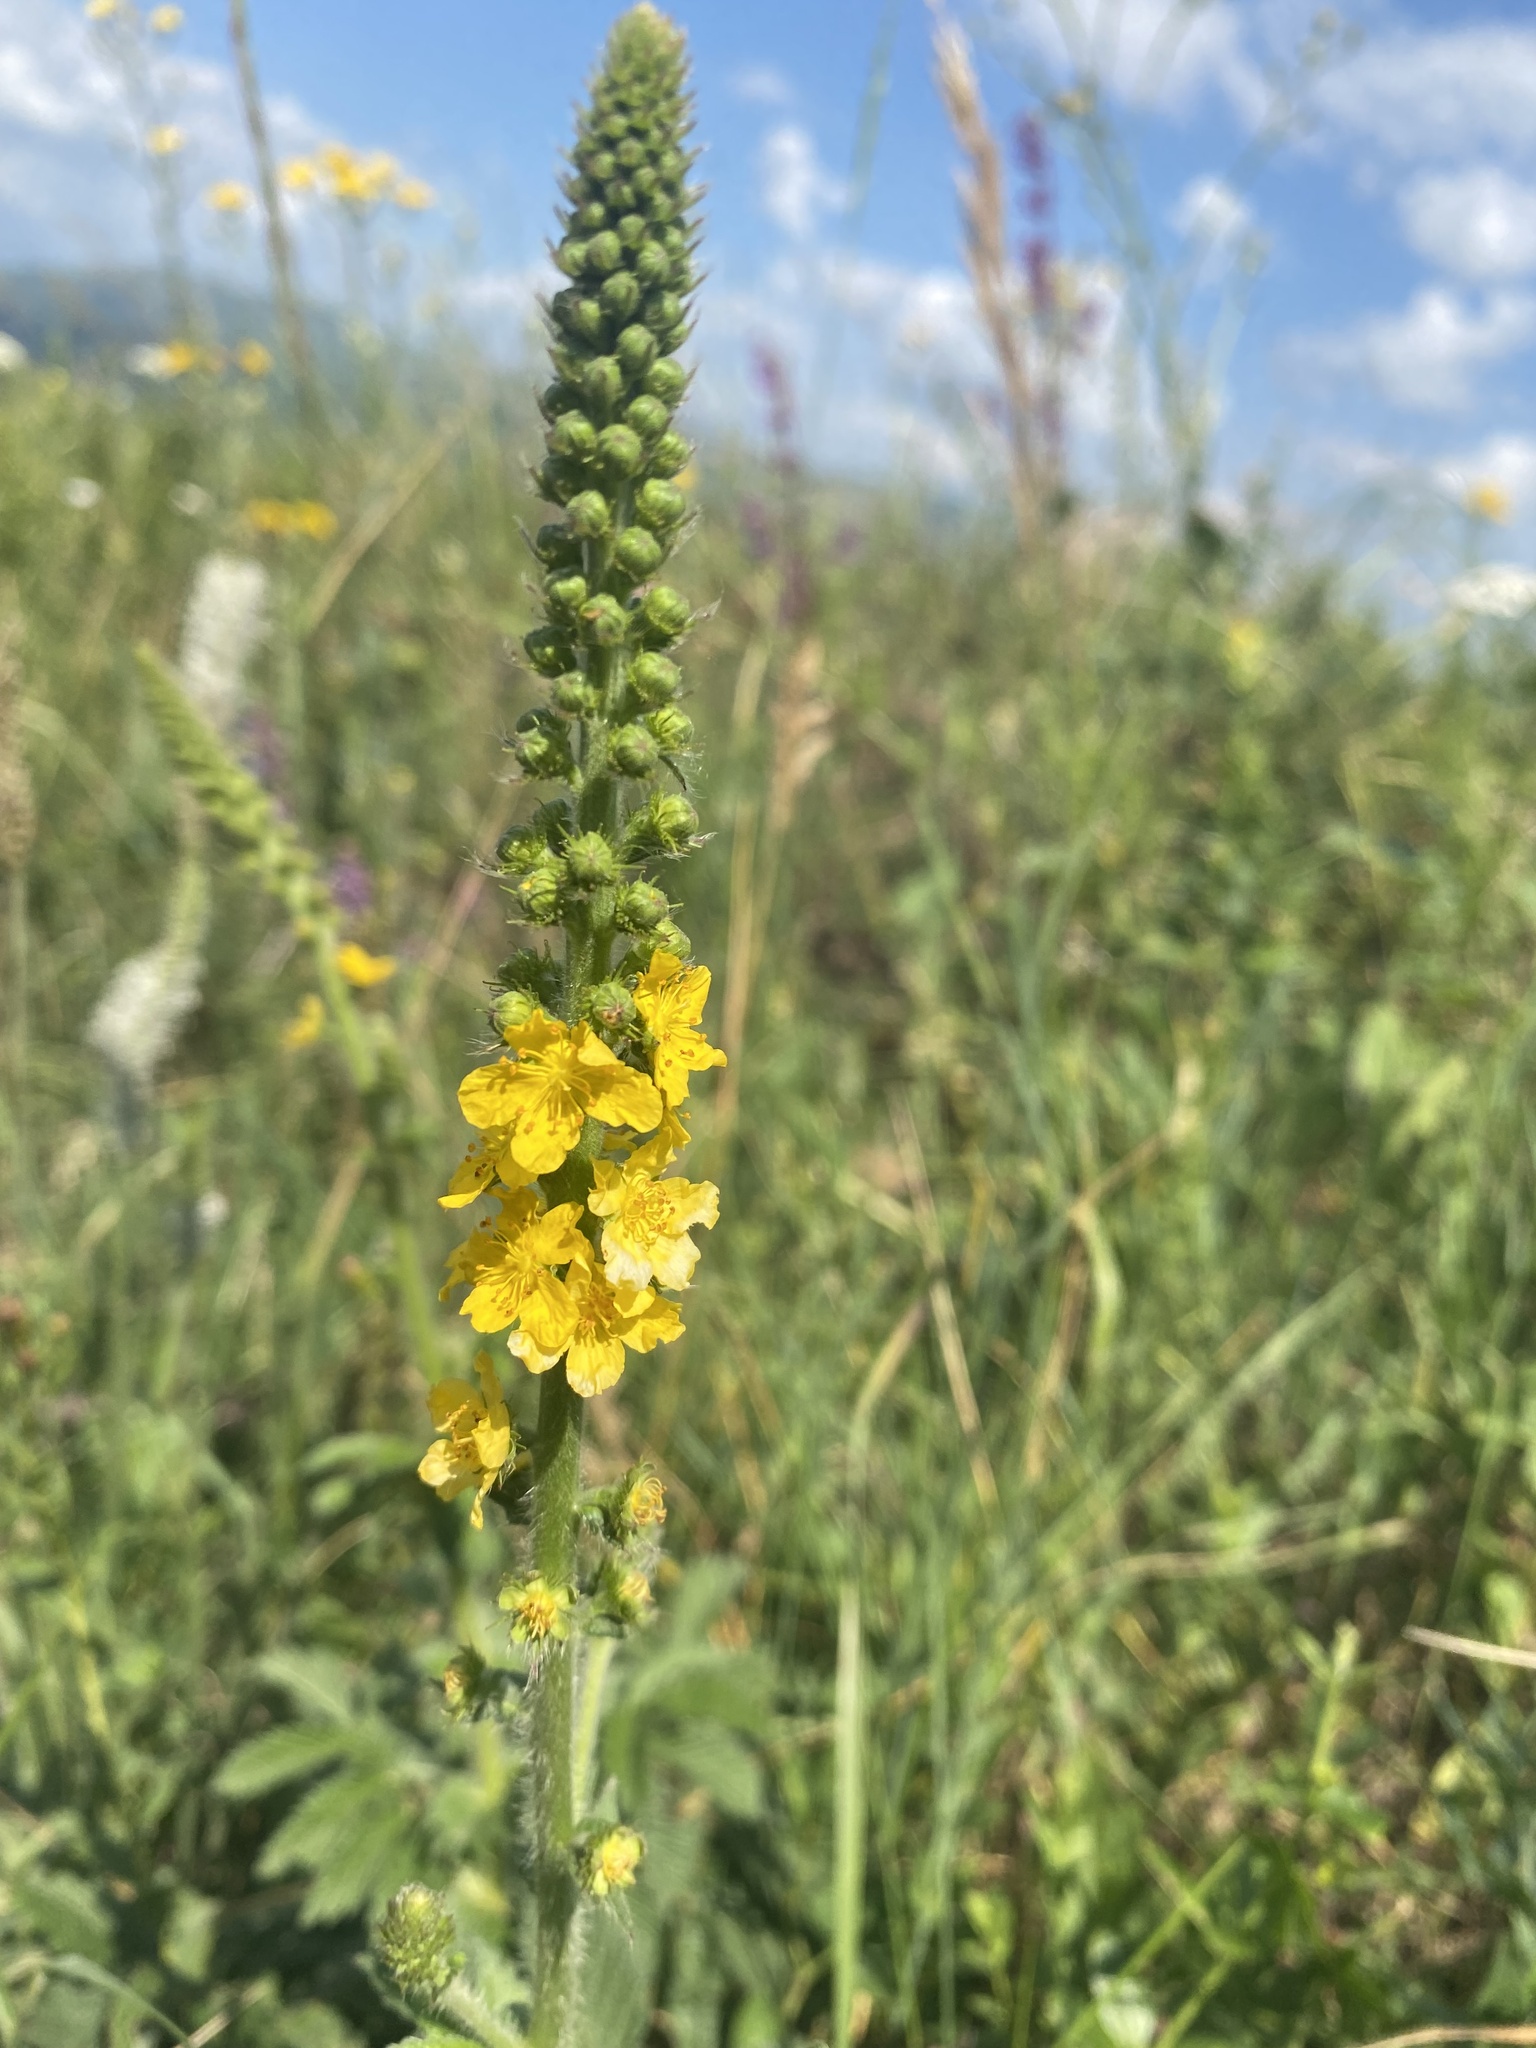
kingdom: Plantae
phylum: Tracheophyta
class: Magnoliopsida
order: Rosales
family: Rosaceae
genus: Agrimonia
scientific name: Agrimonia eupatoria
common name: Agrimony
